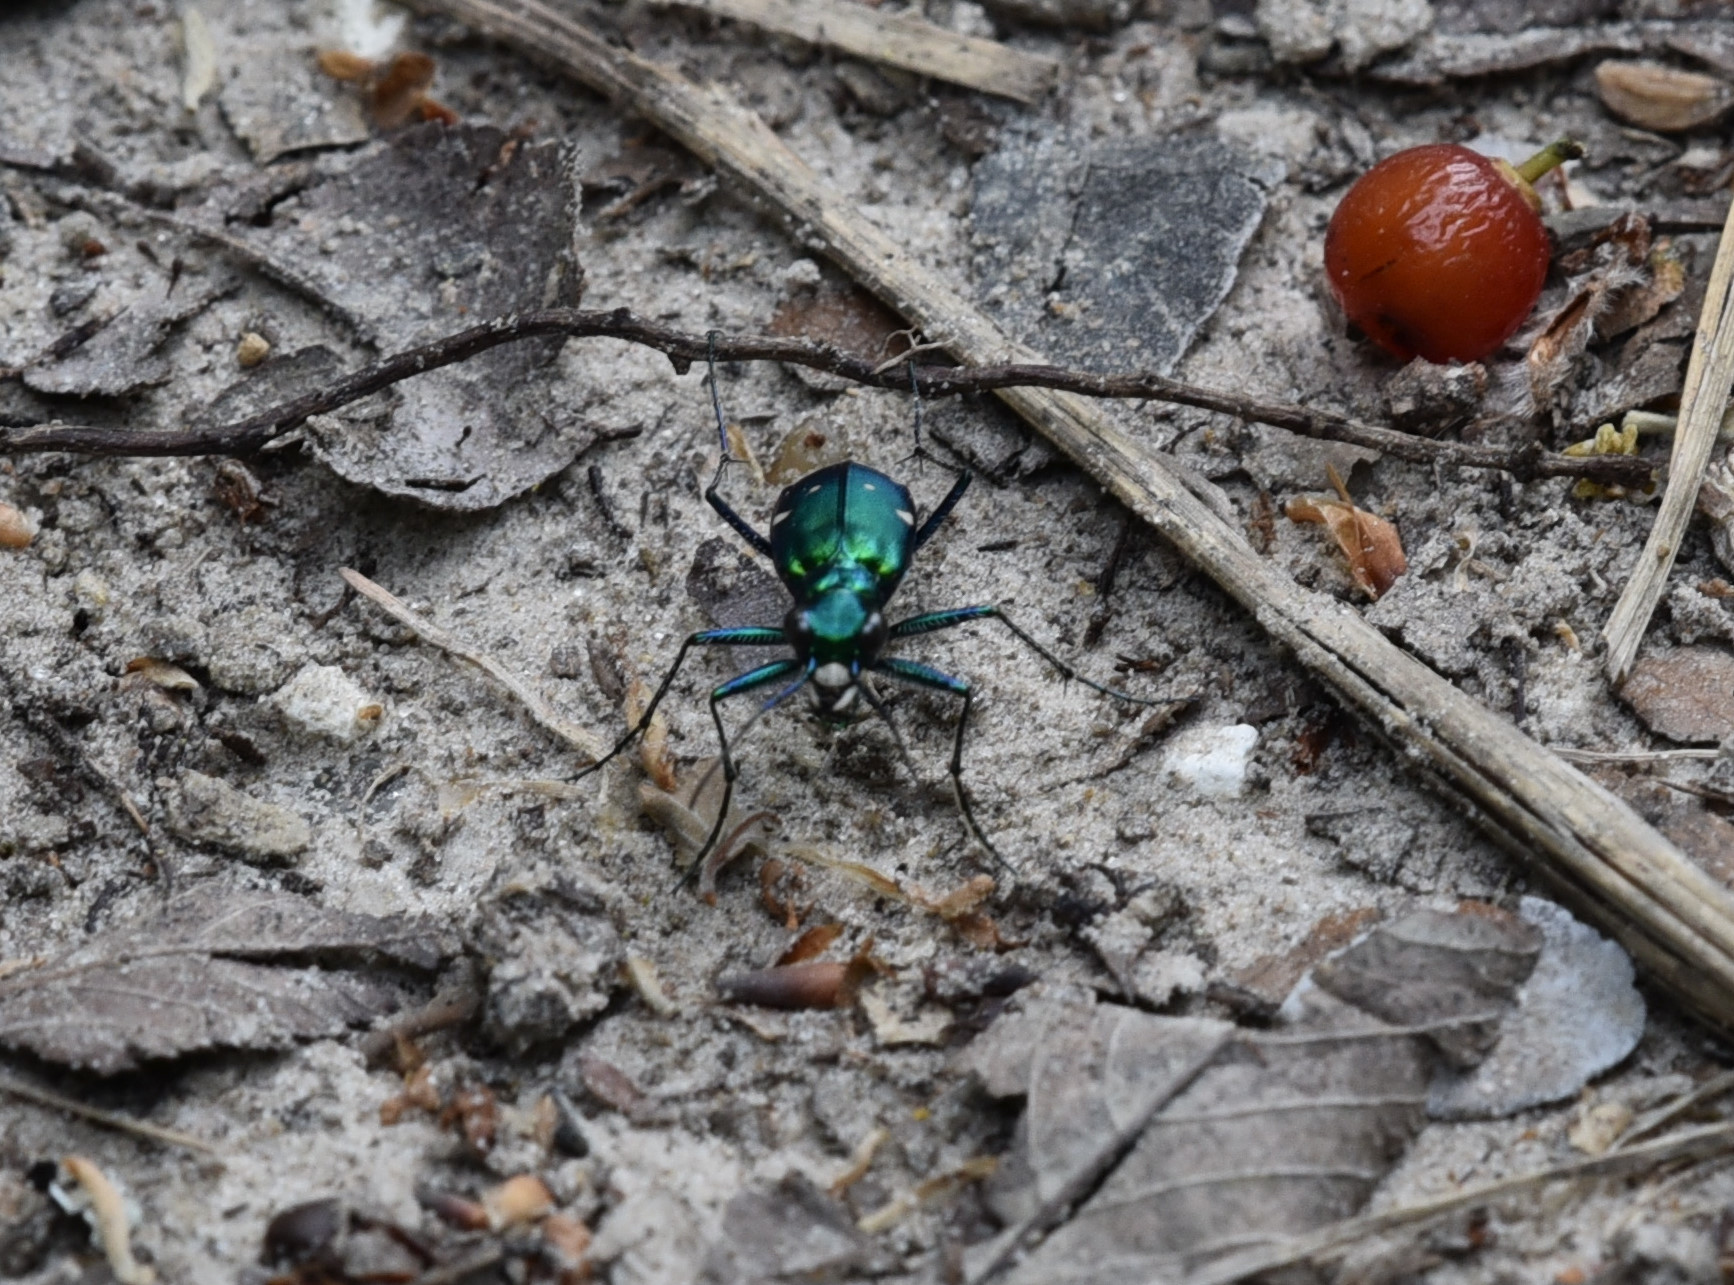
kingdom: Animalia
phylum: Arthropoda
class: Insecta
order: Coleoptera
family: Carabidae
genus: Cicindela
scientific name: Cicindela sexguttata
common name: Six-spotted tiger beetle
